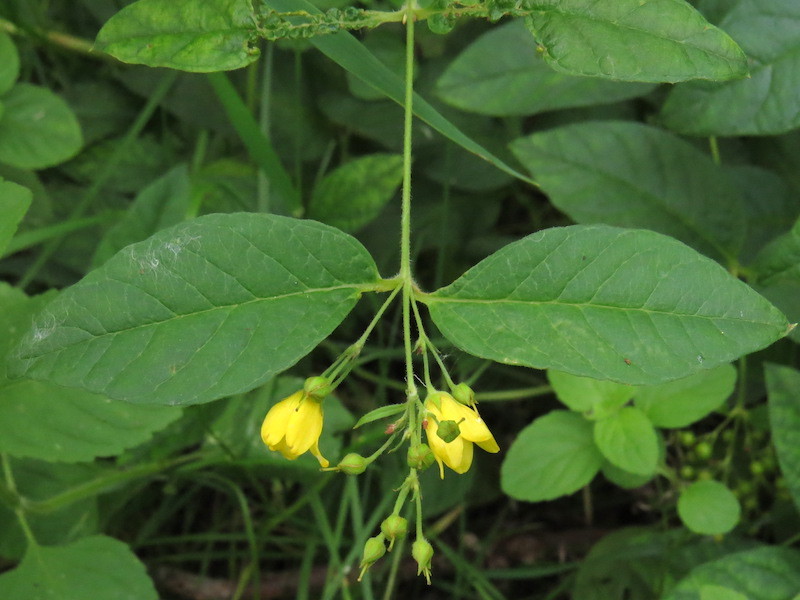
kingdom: Plantae
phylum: Tracheophyta
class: Magnoliopsida
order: Ericales
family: Primulaceae
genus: Lysimachia
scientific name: Lysimachia vulgaris
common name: Yellow loosestrife
